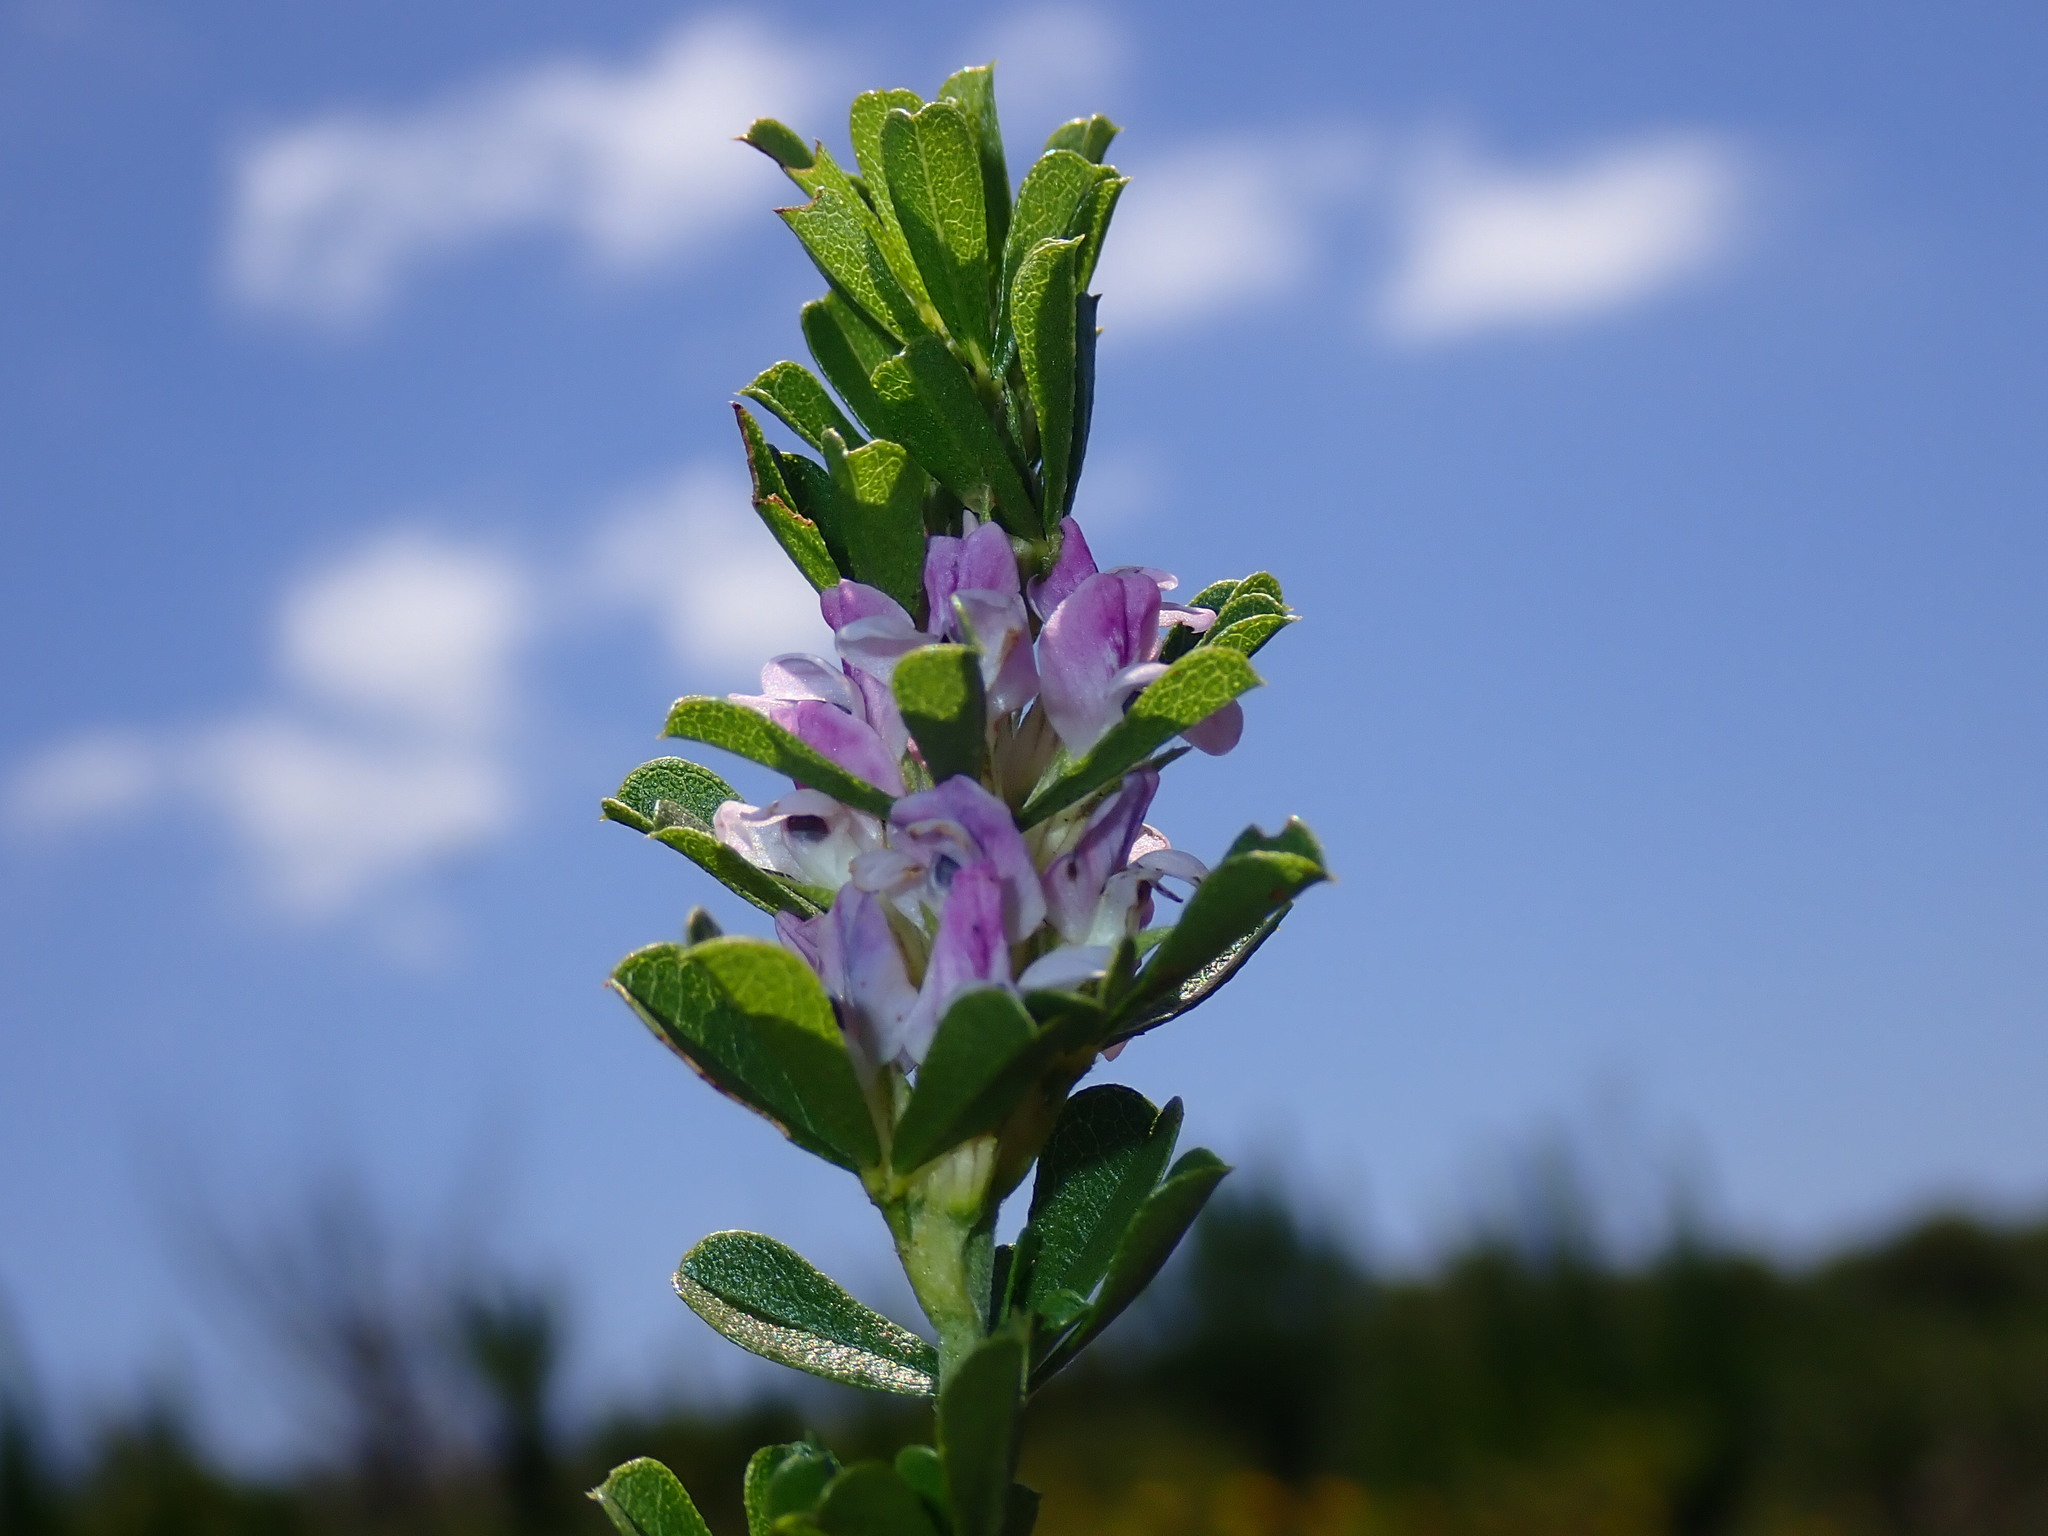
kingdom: Plantae
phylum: Tracheophyta
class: Magnoliopsida
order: Fabales
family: Fabaceae
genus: Psoralea
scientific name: Psoralea
